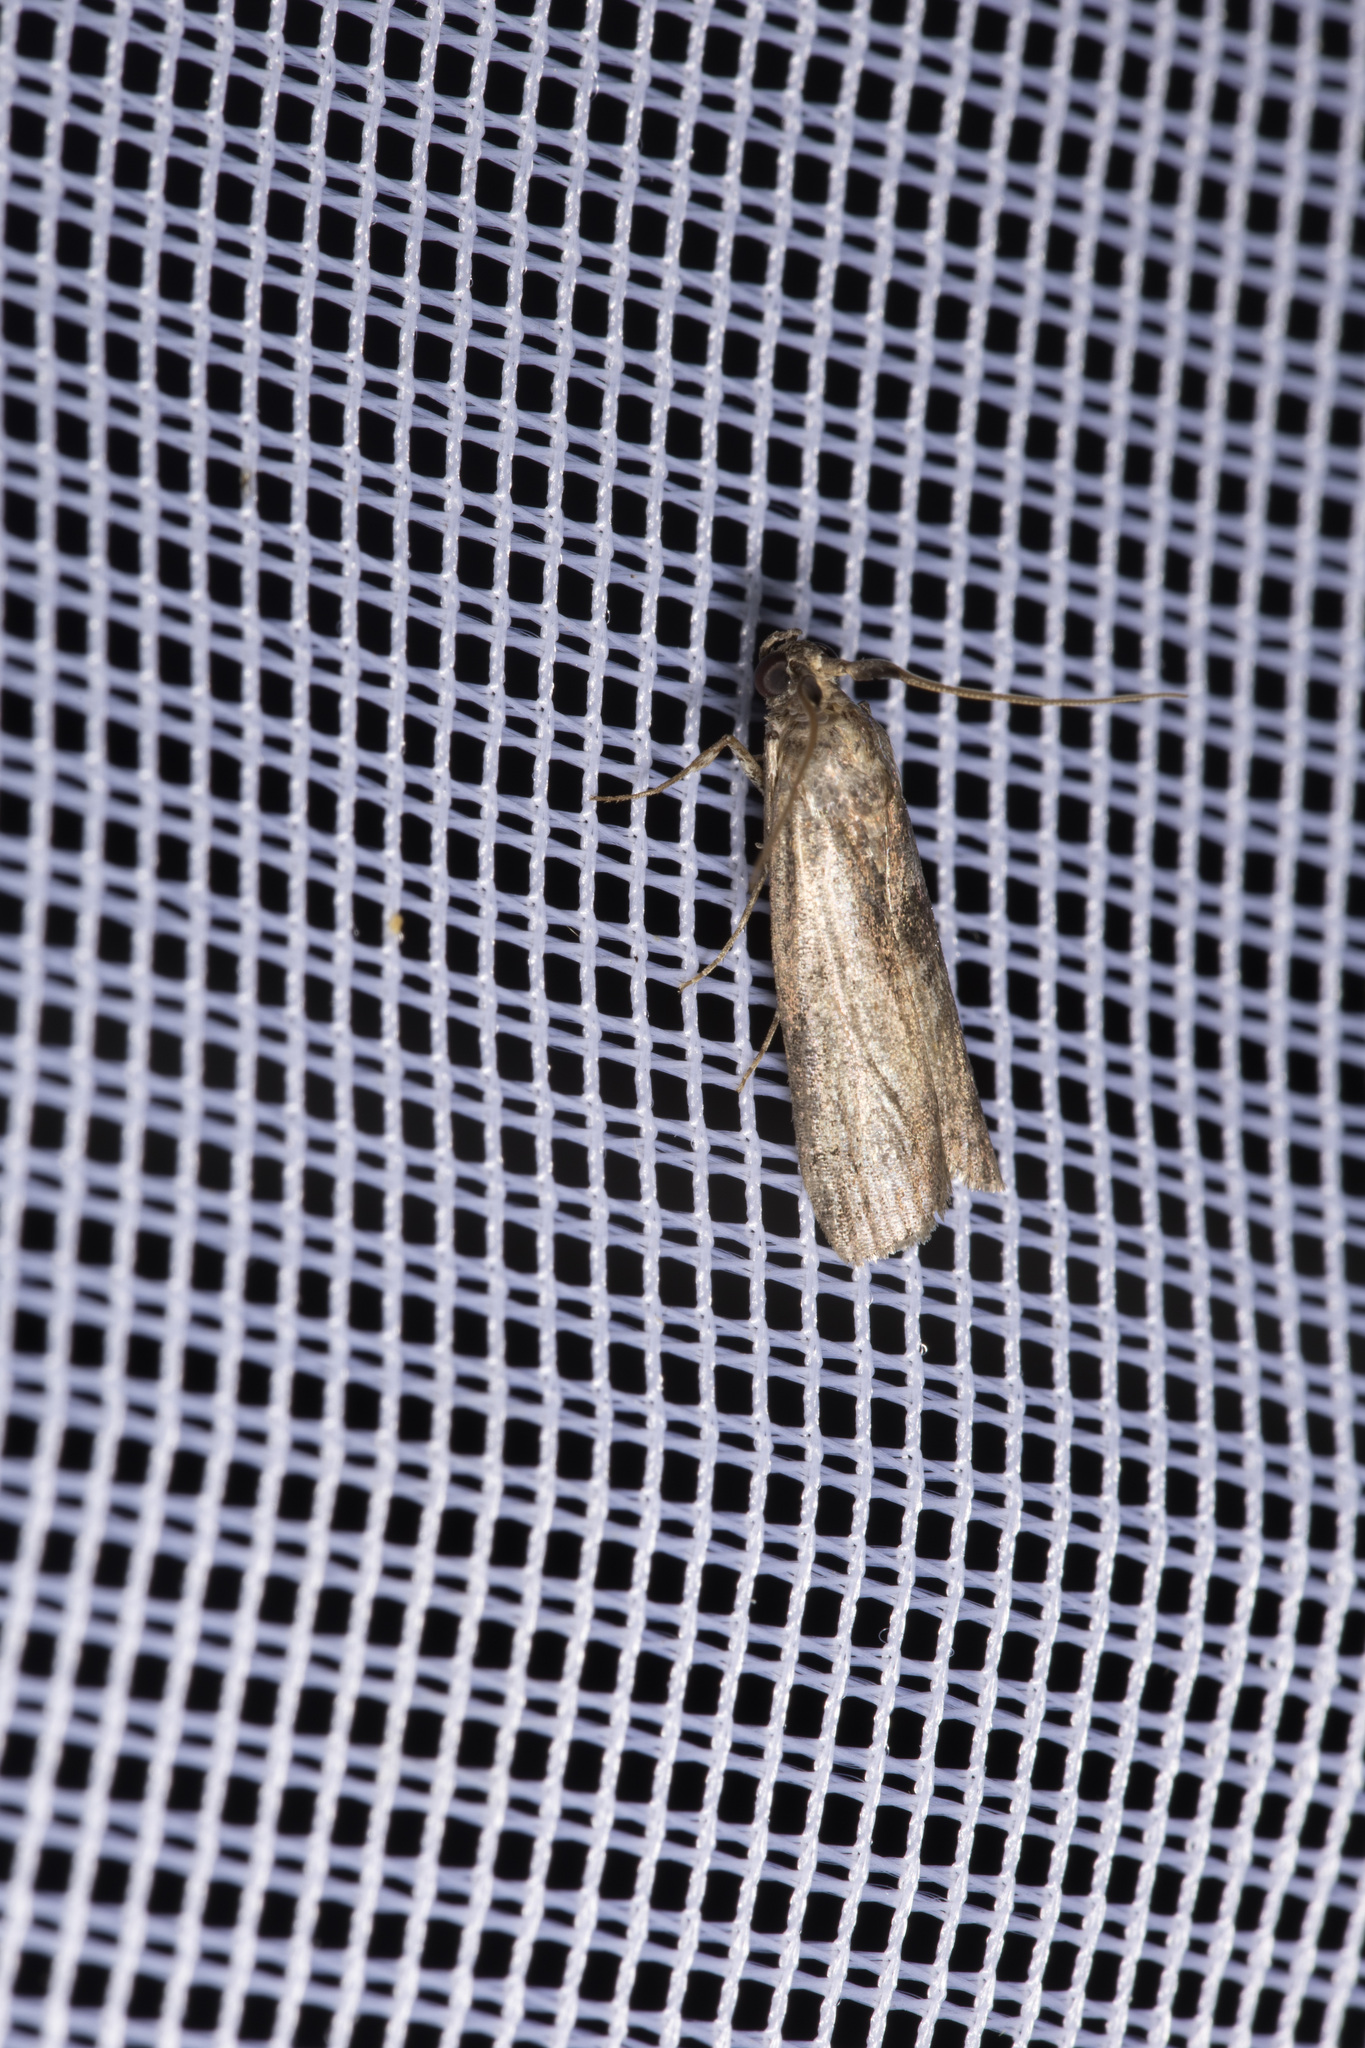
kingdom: Animalia
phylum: Arthropoda
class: Insecta
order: Lepidoptera
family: Pyralidae
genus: Phycita
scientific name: Phycita roborella
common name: Dotted oak knot-horn
